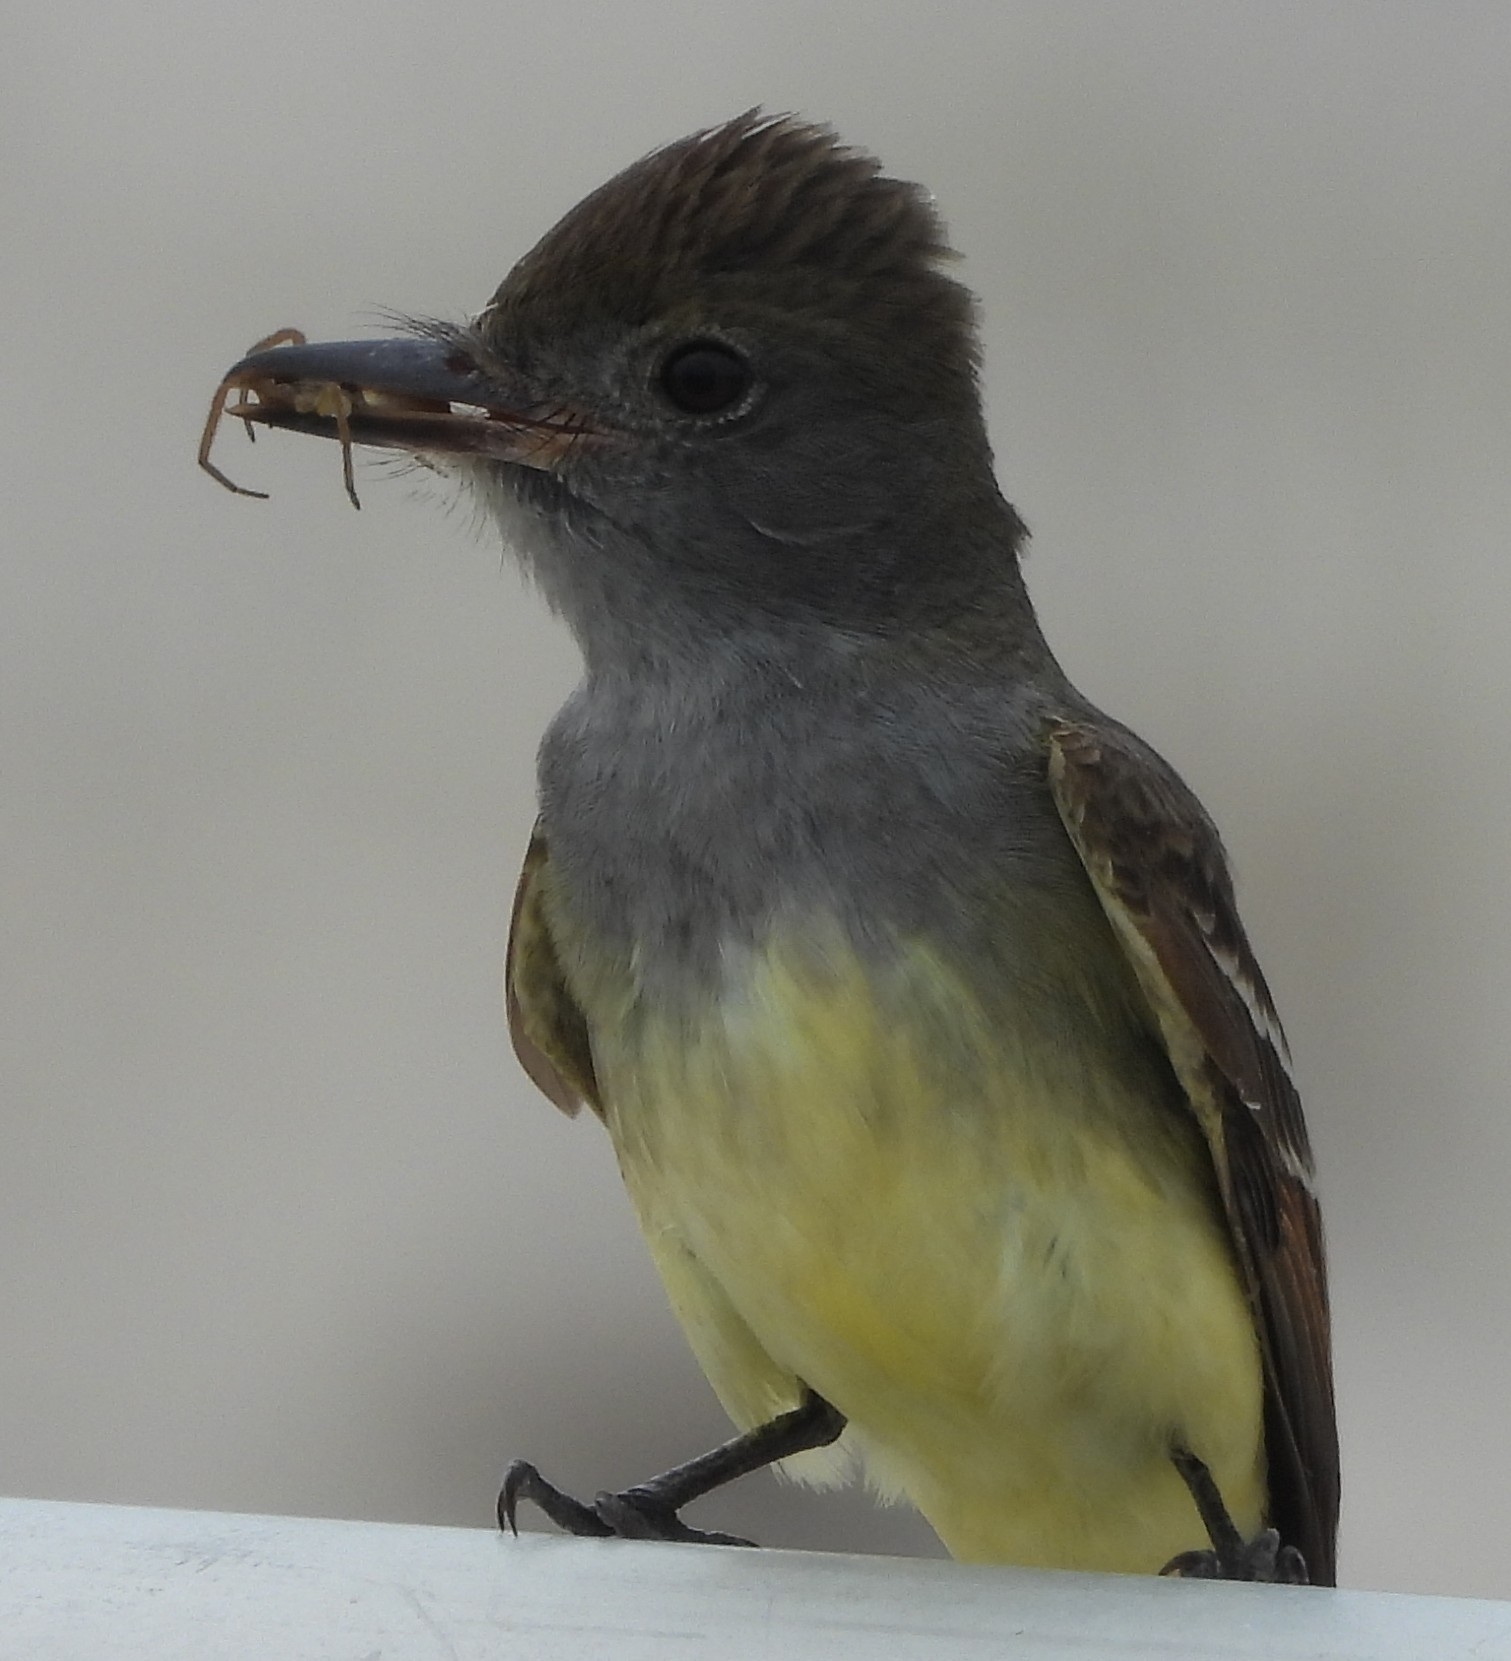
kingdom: Animalia
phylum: Chordata
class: Aves
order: Passeriformes
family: Tyrannidae
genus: Myiarchus
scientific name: Myiarchus crinitus
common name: Great crested flycatcher
